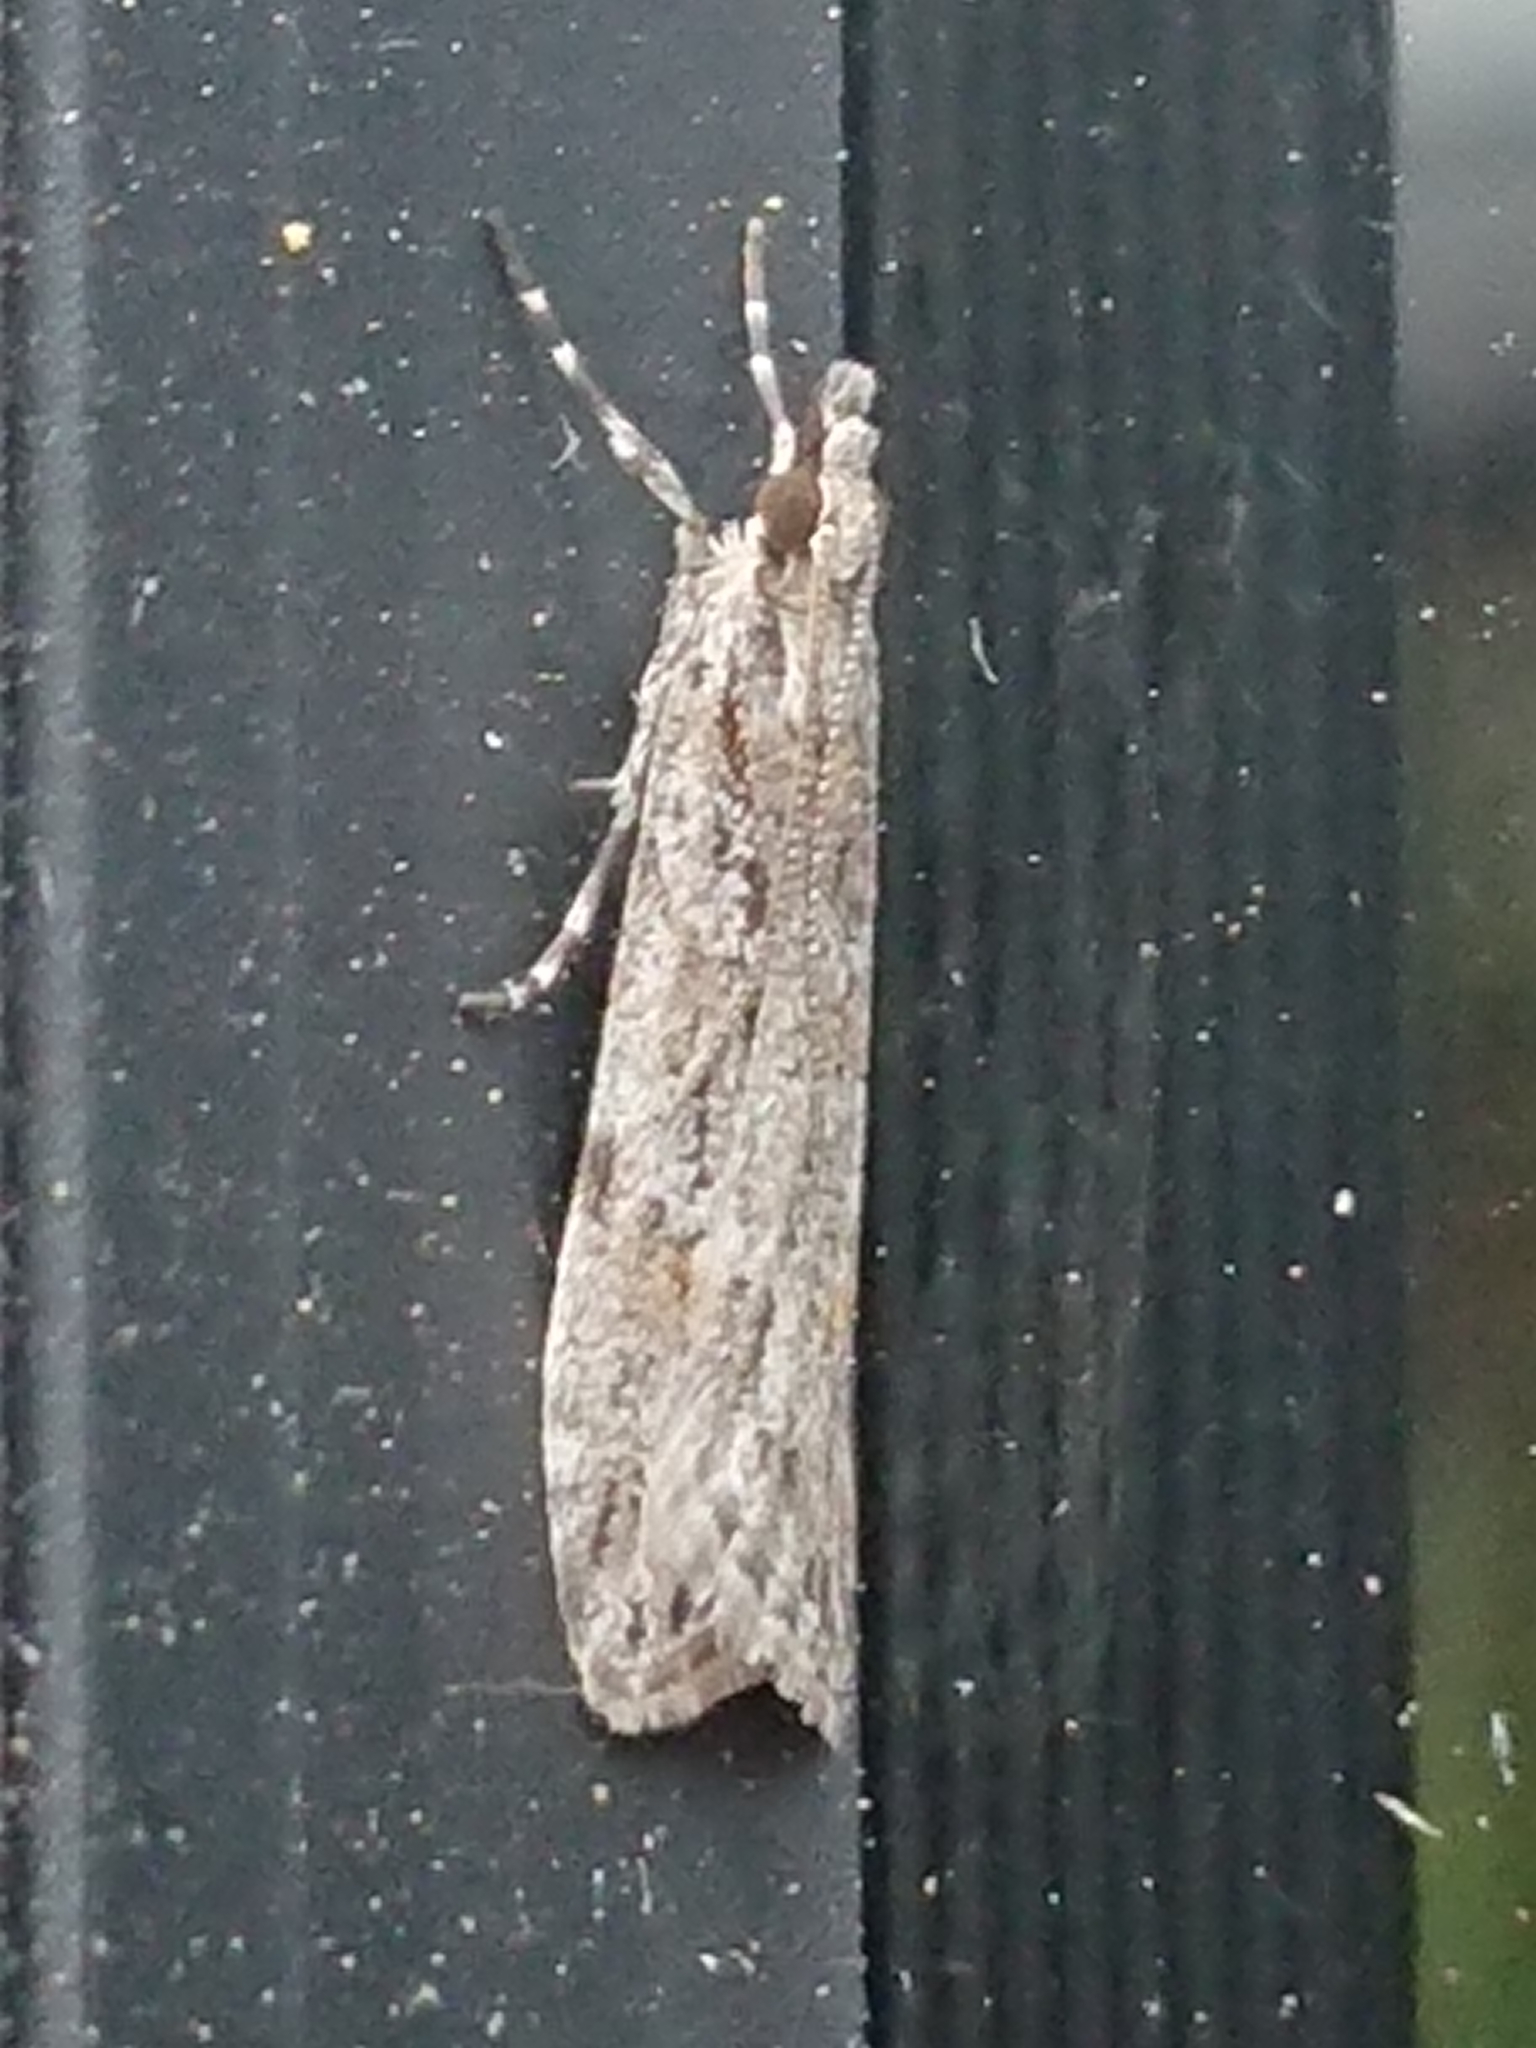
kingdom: Animalia
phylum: Arthropoda
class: Insecta
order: Lepidoptera
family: Crambidae
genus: Scoparia
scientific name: Scoparia chalicodes
